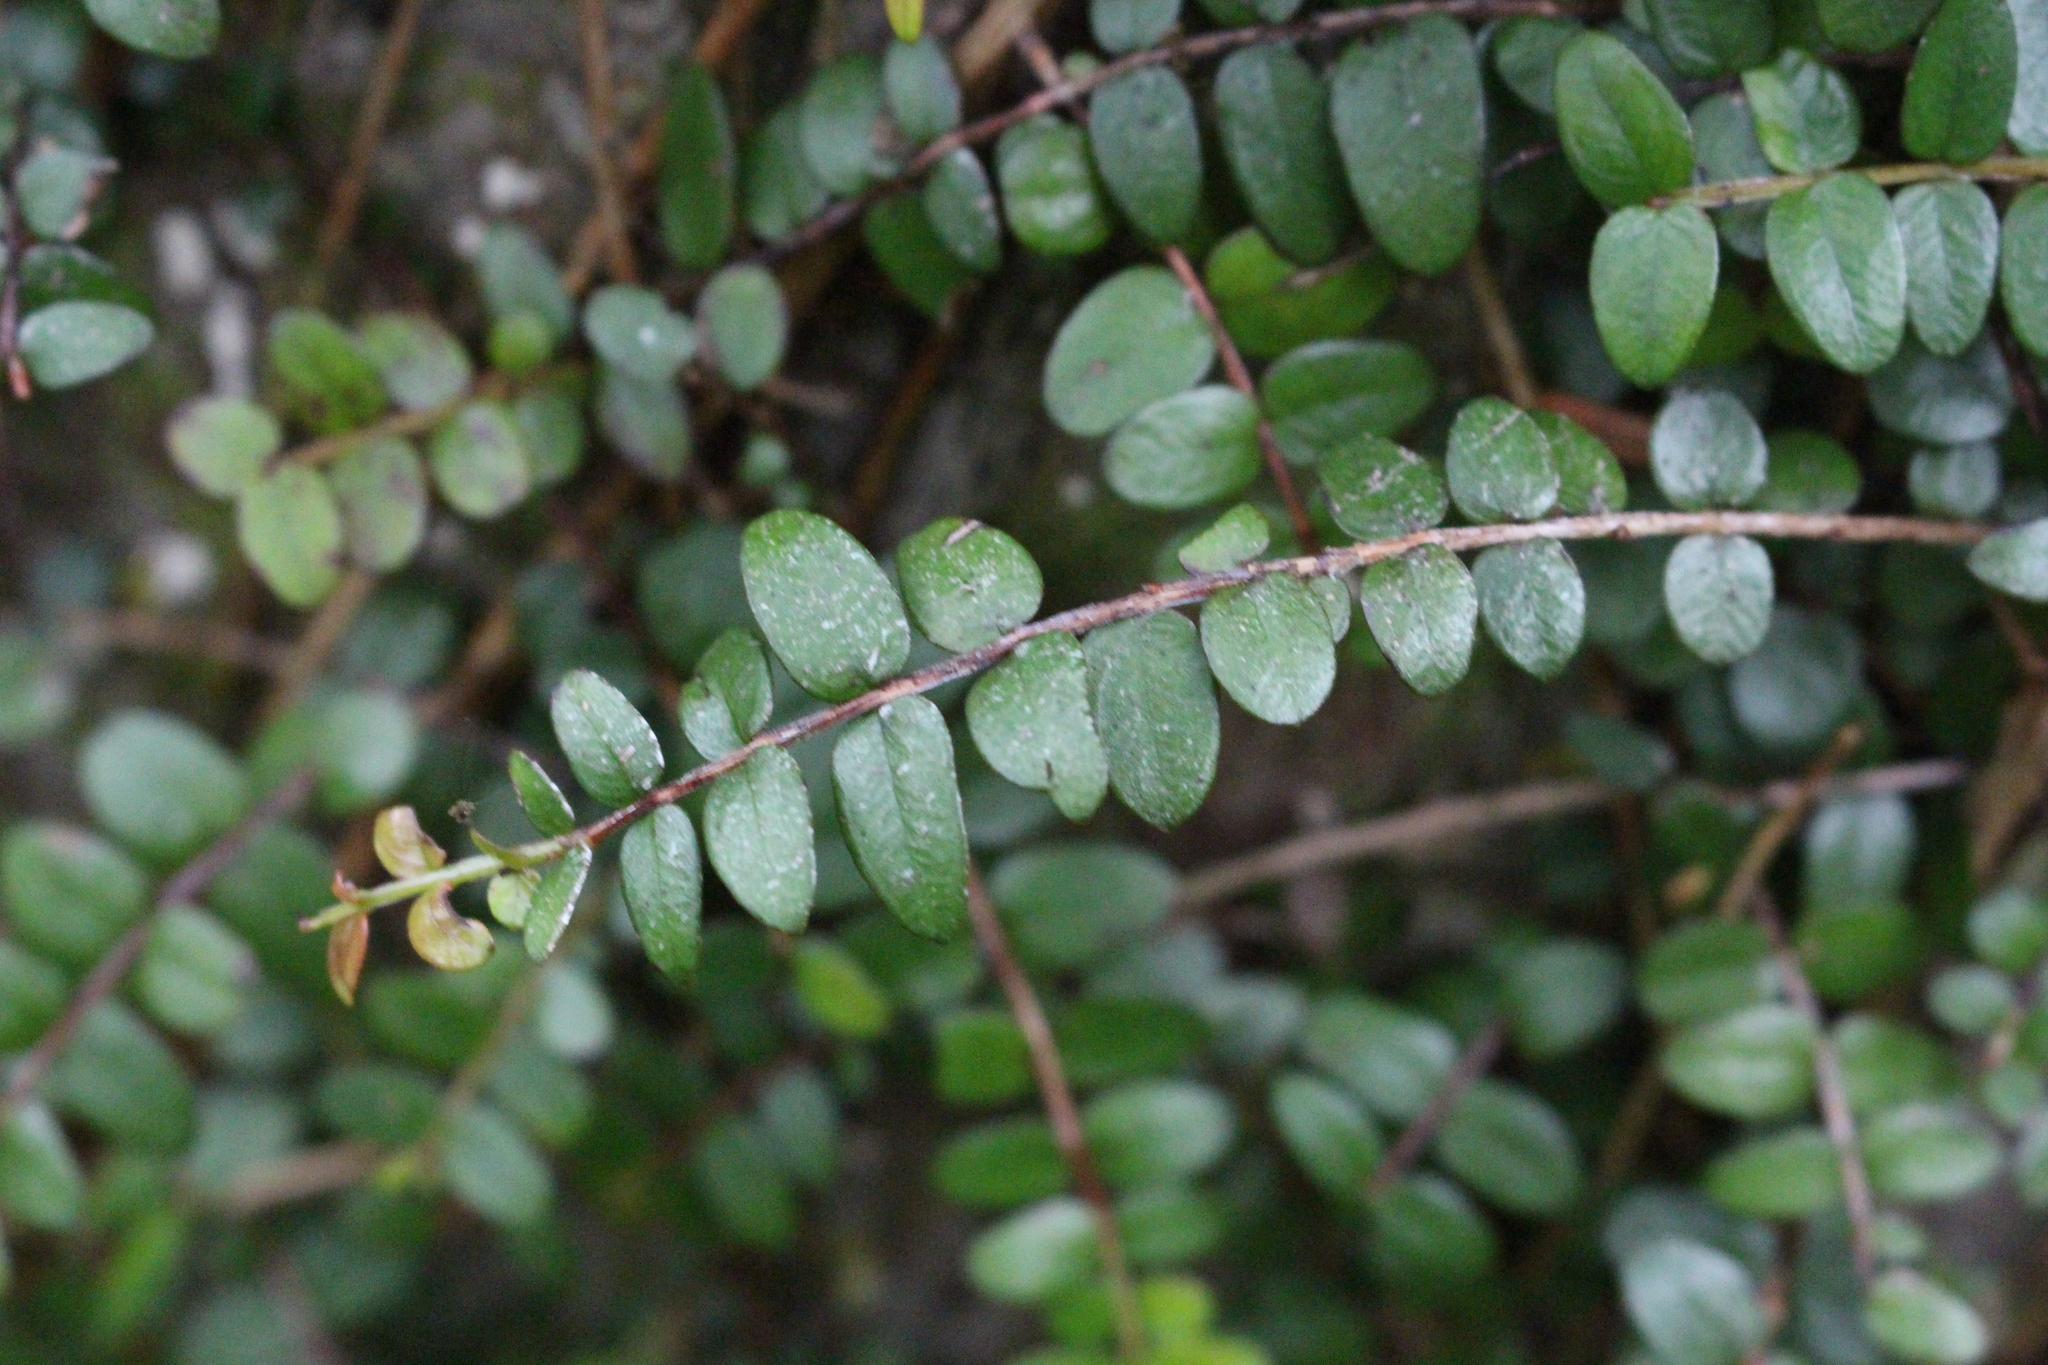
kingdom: Plantae
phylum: Tracheophyta
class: Magnoliopsida
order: Myrtales
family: Myrtaceae
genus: Metrosideros
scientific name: Metrosideros diffusa
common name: Small ratavine
